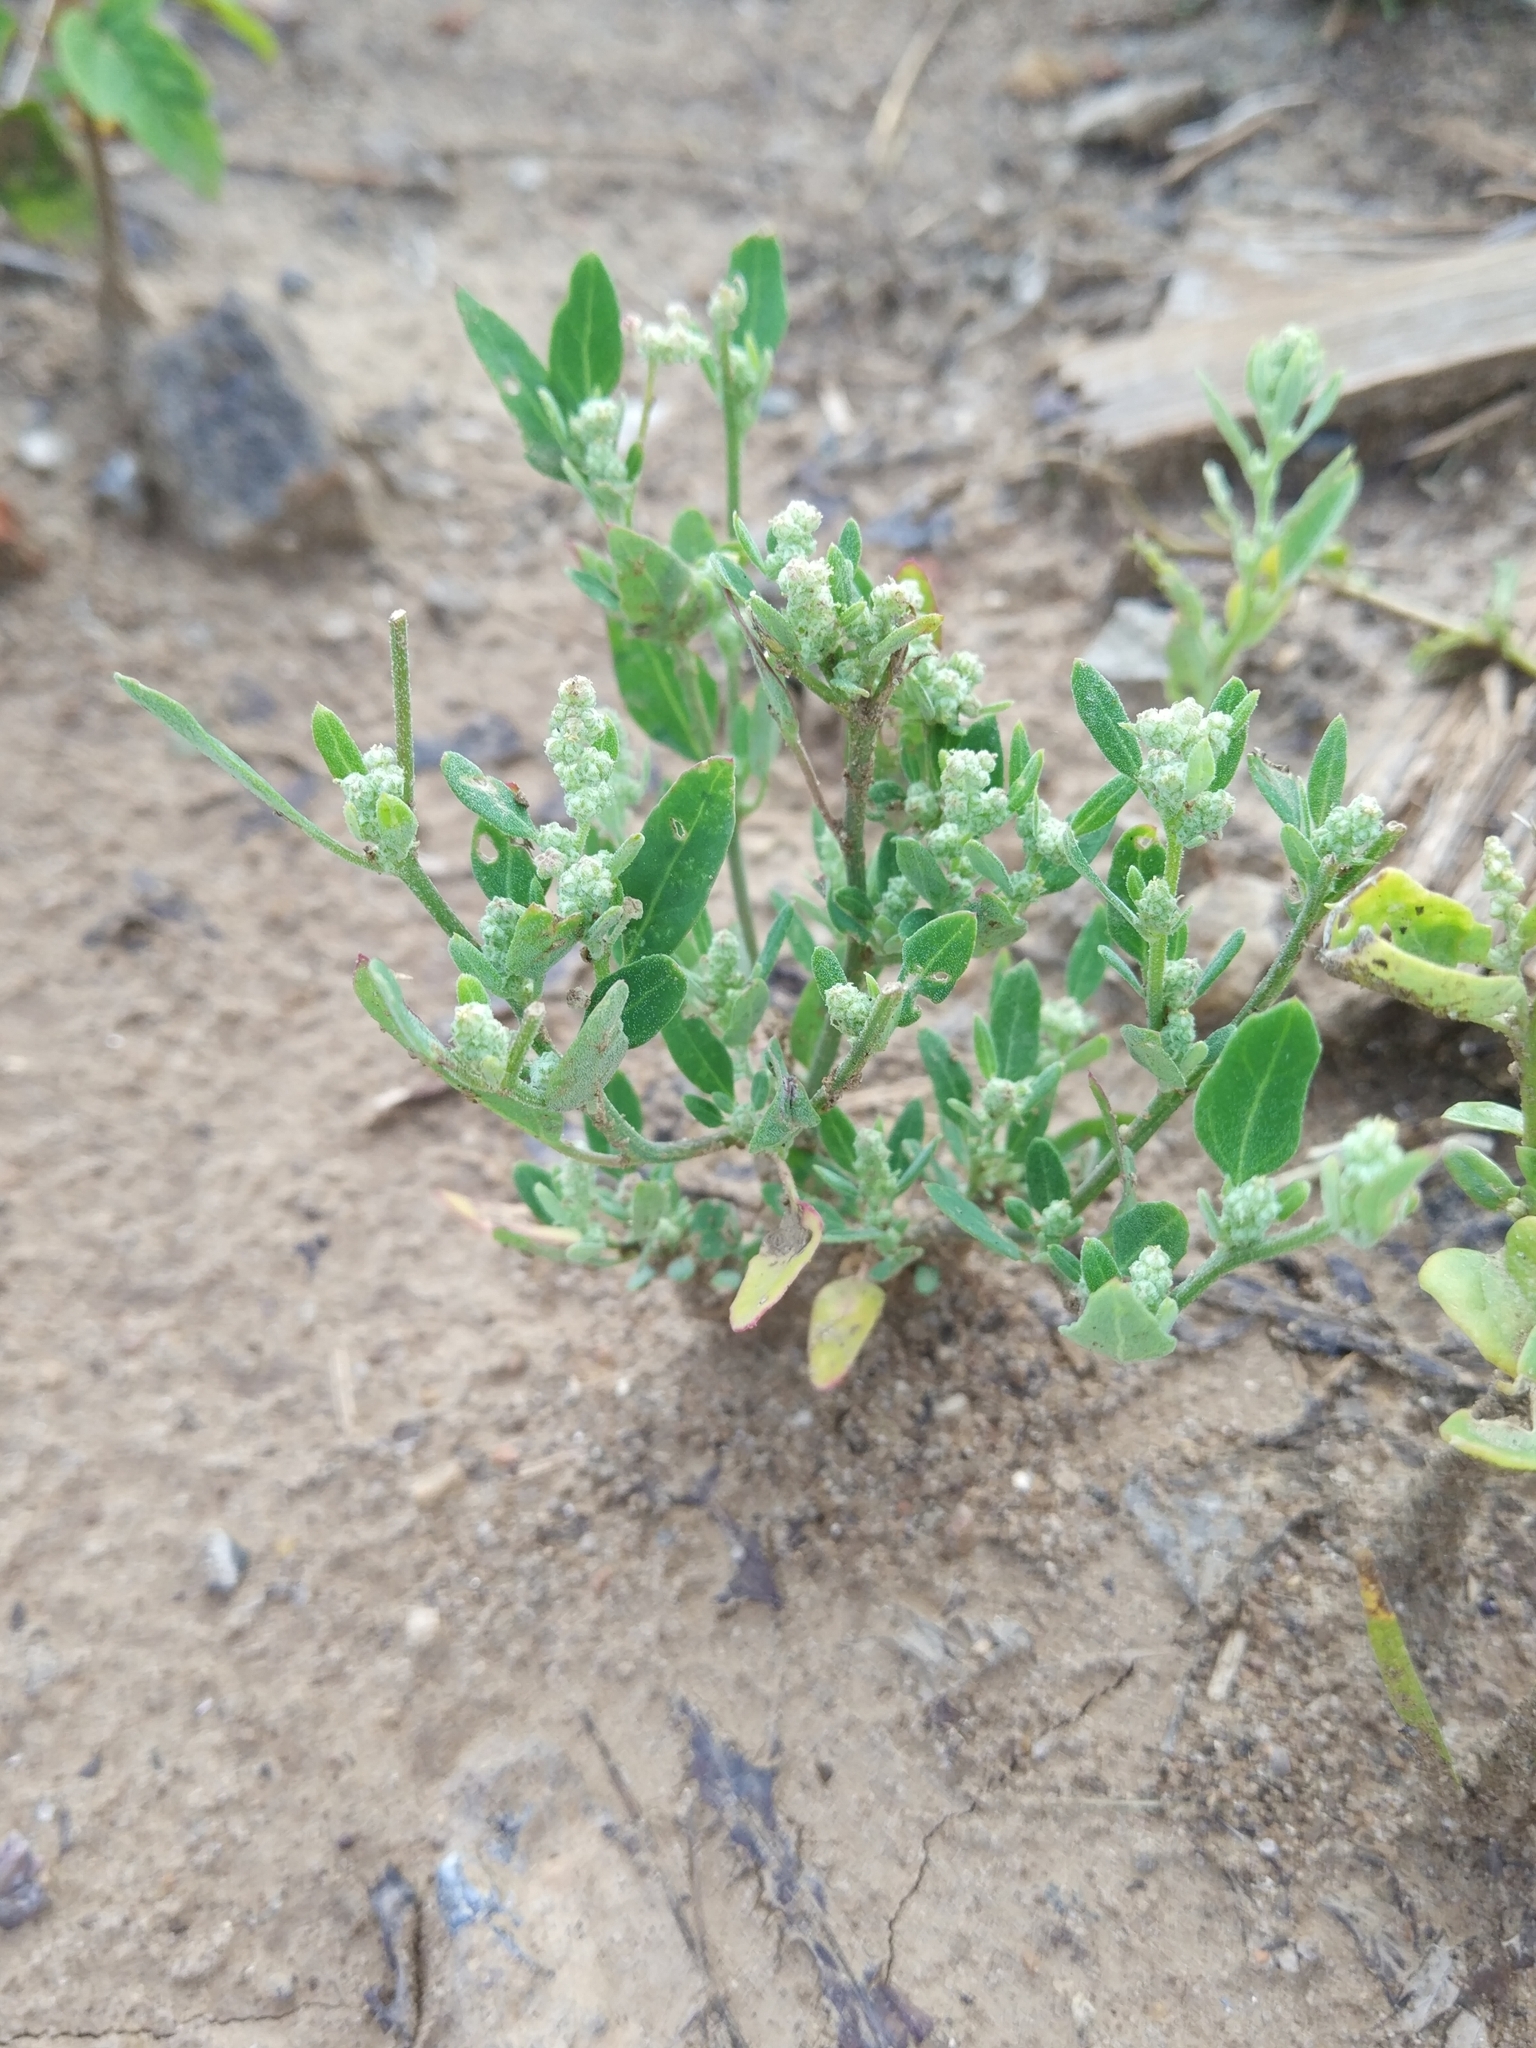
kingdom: Plantae
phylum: Tracheophyta
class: Magnoliopsida
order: Caryophyllales
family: Amaranthaceae
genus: Chenopodium
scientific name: Chenopodium album
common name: Fat-hen
